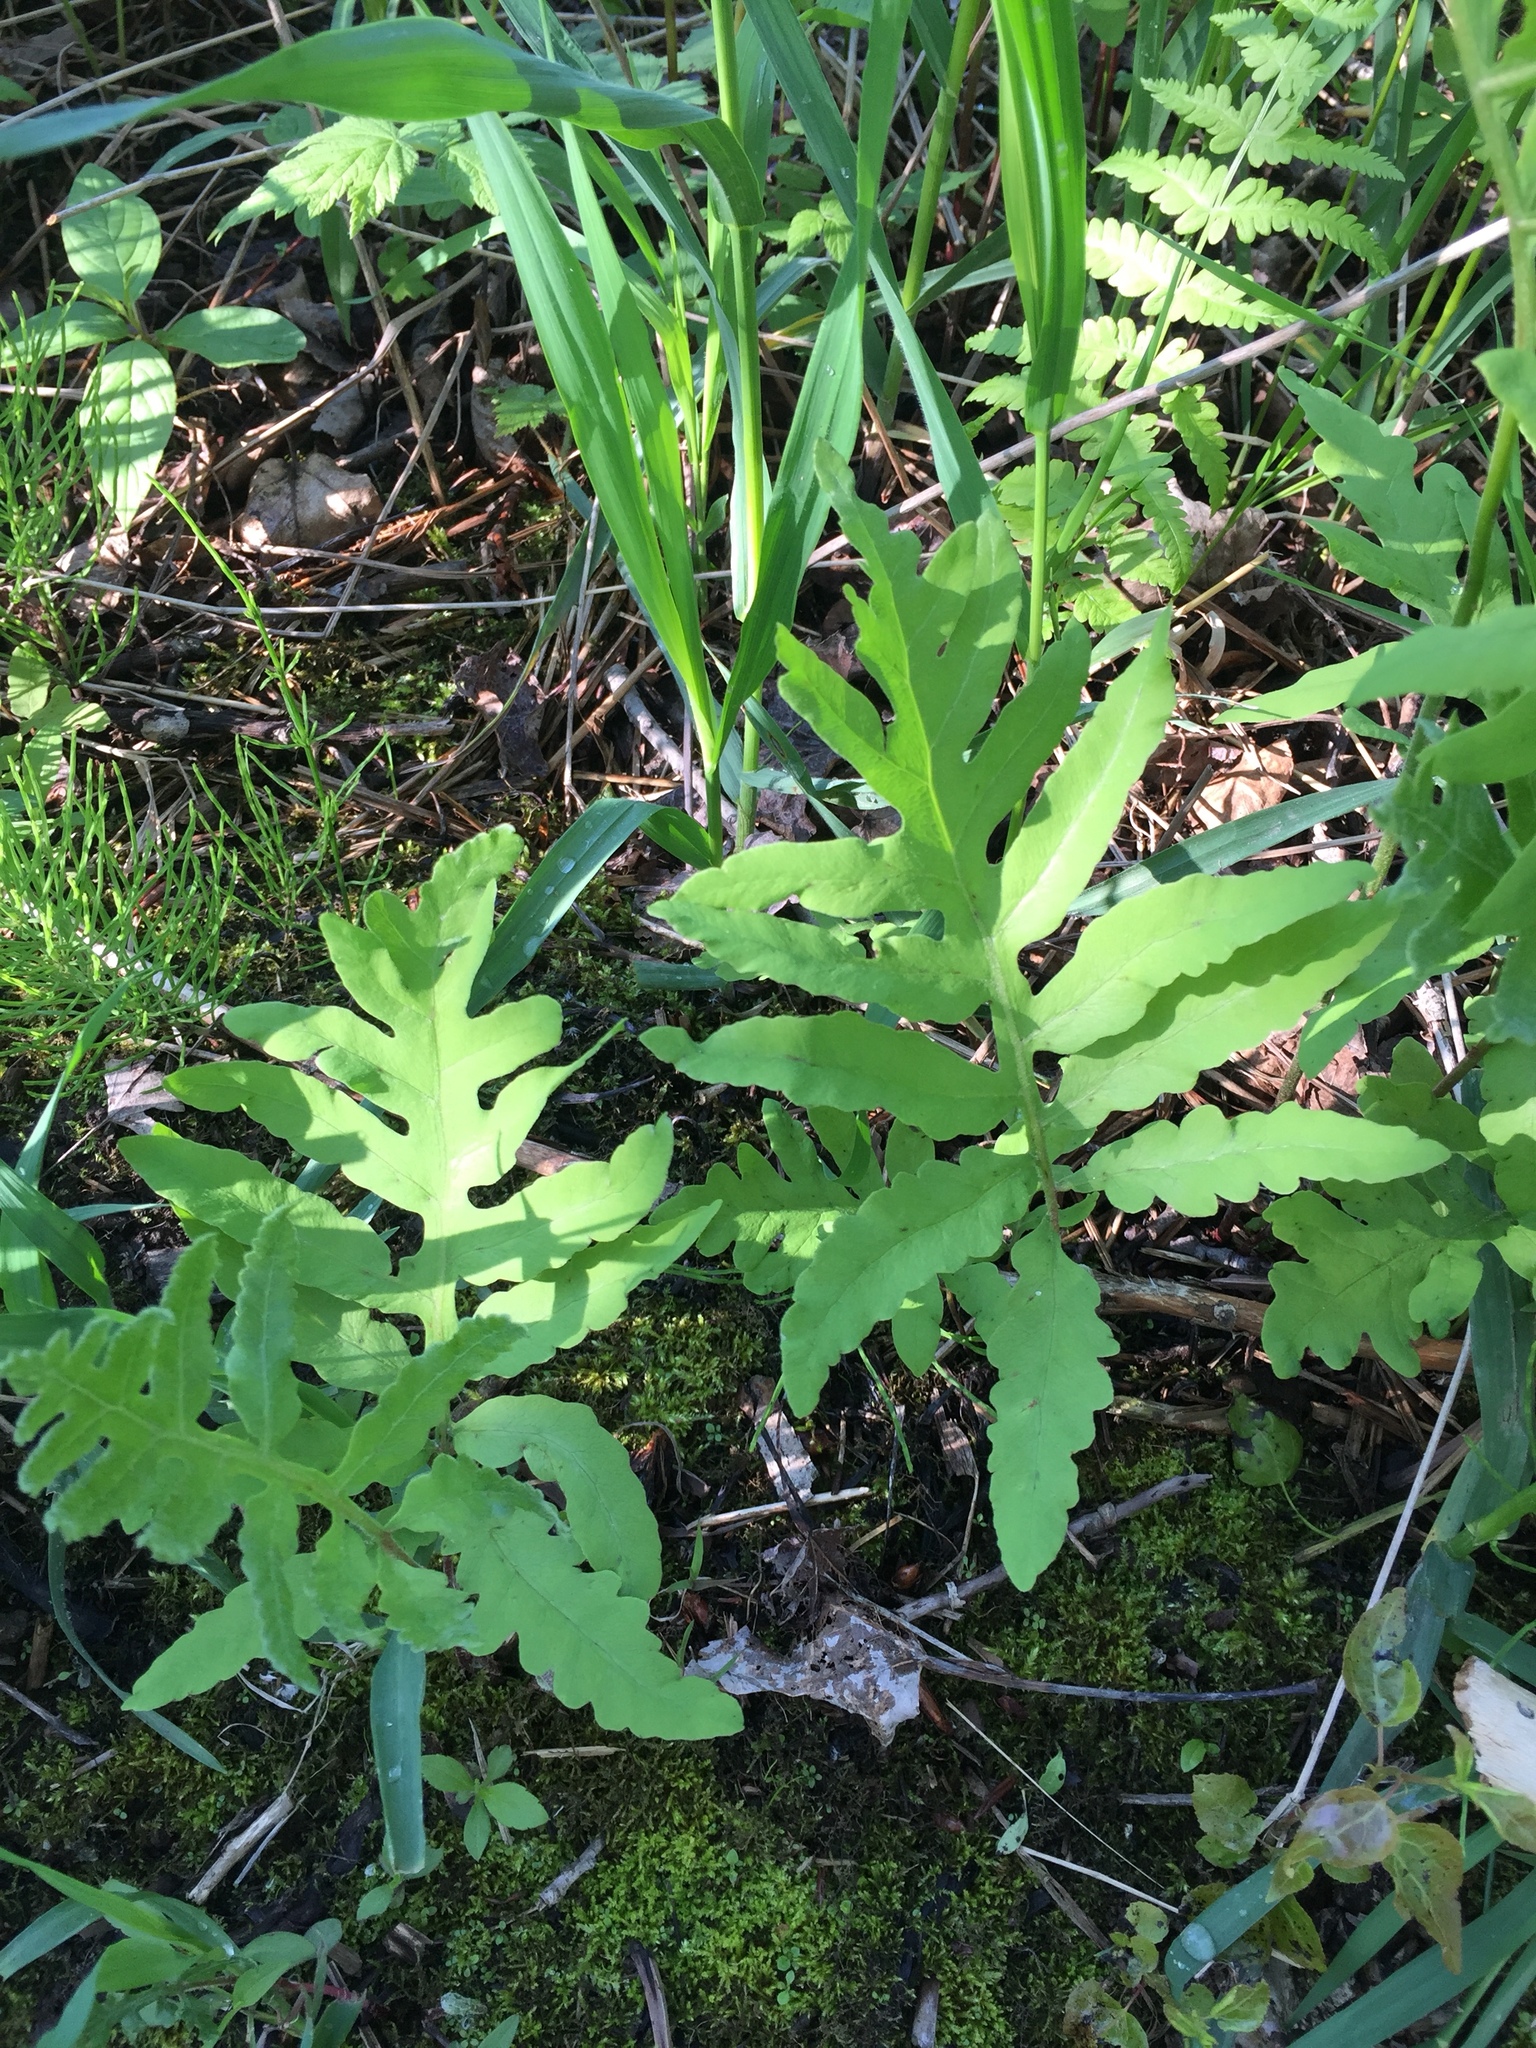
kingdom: Plantae
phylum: Tracheophyta
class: Polypodiopsida
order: Polypodiales
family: Onocleaceae
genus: Onoclea
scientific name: Onoclea sensibilis
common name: Sensitive fern
